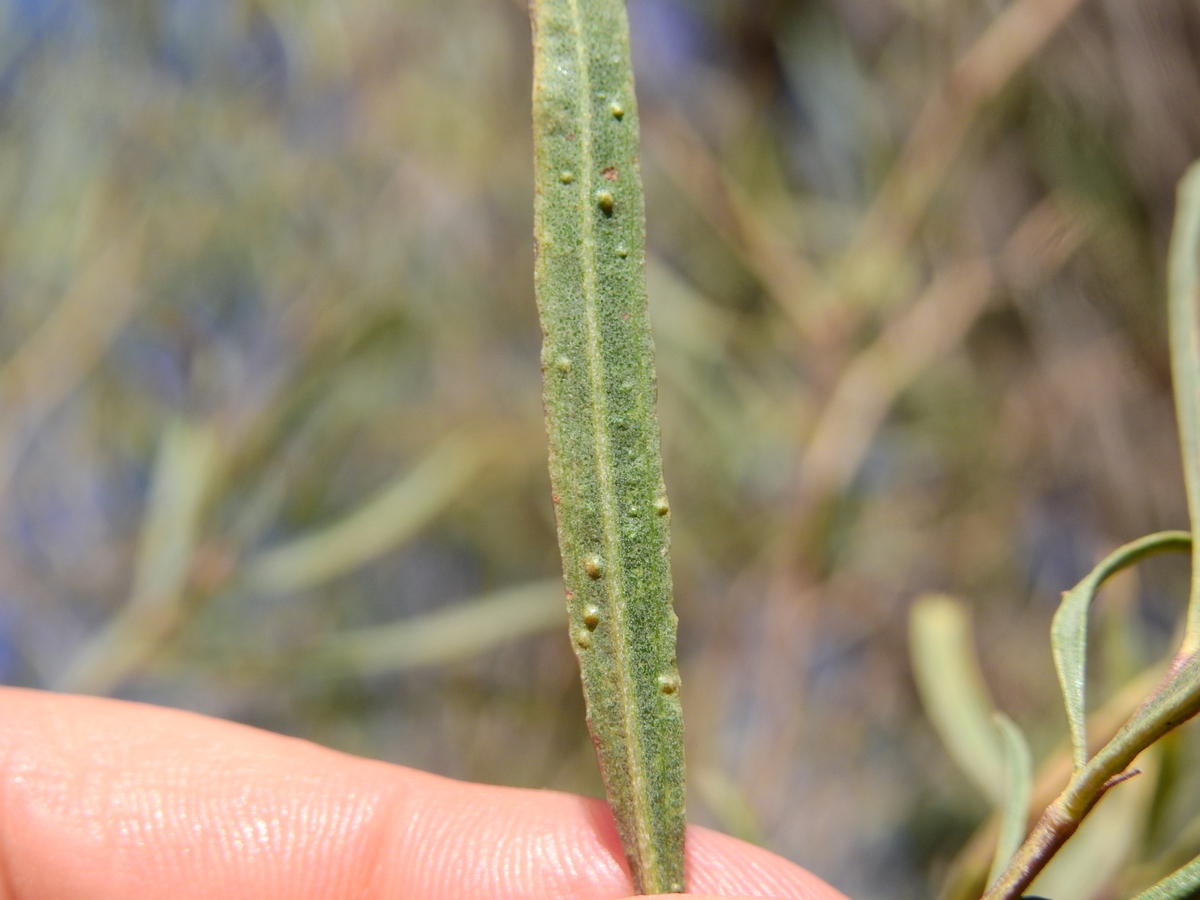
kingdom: Plantae
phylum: Tracheophyta
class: Magnoliopsida
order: Asterales
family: Asteraceae
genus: Baccharis
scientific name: Baccharis salicifolia
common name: Sticky baccharis
